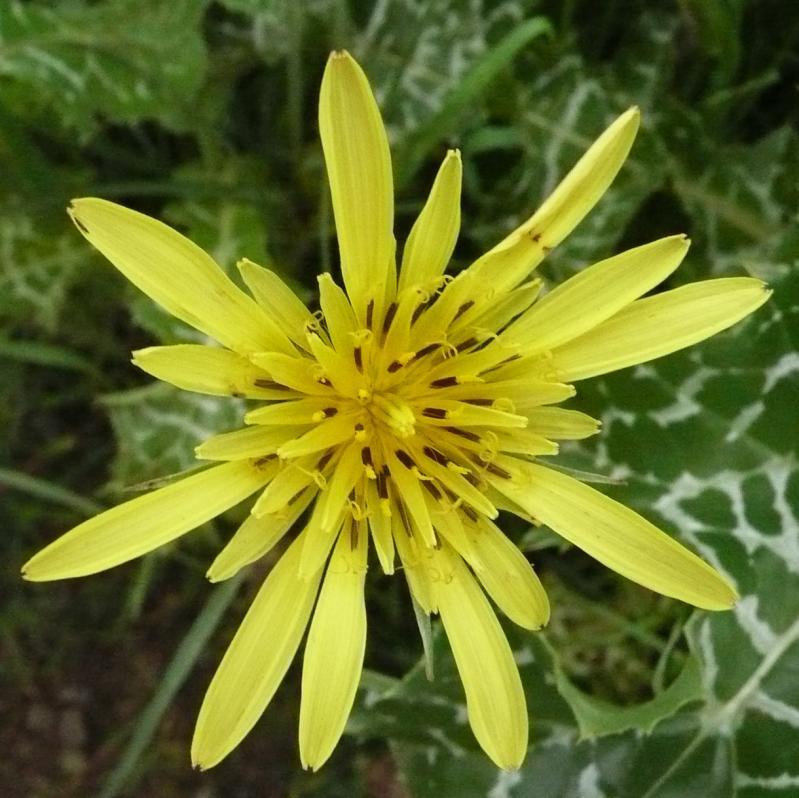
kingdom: Plantae
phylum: Tracheophyta
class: Magnoliopsida
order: Asterales
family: Asteraceae
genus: Tragopogon
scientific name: Tragopogon dubius
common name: Yellow salsify
